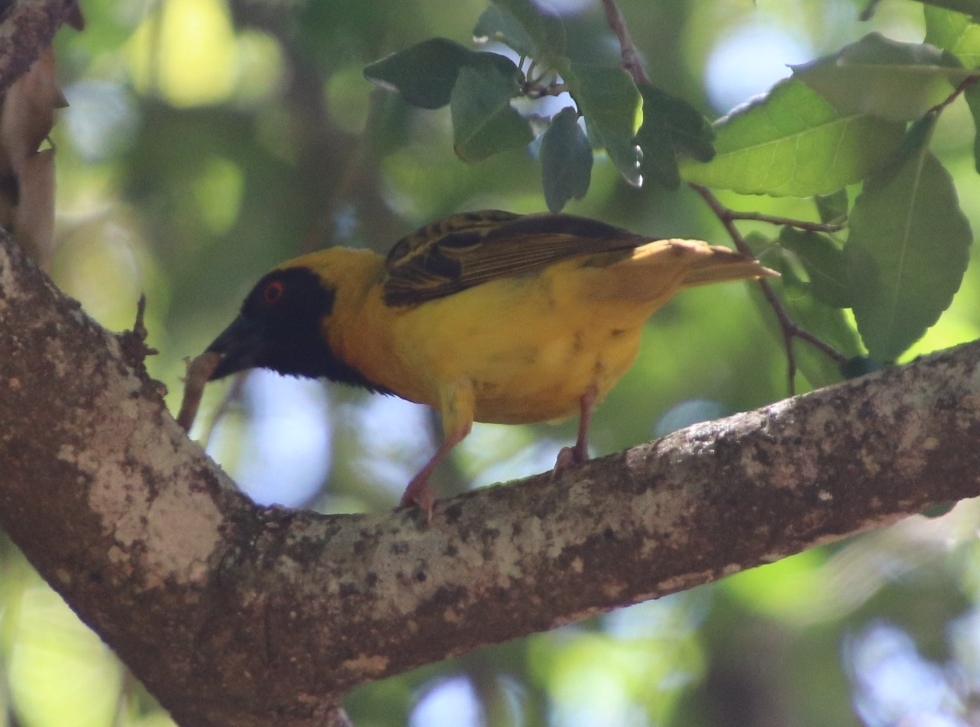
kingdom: Animalia
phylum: Chordata
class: Aves
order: Passeriformes
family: Ploceidae
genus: Ploceus
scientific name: Ploceus velatus
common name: Southern masked weaver
